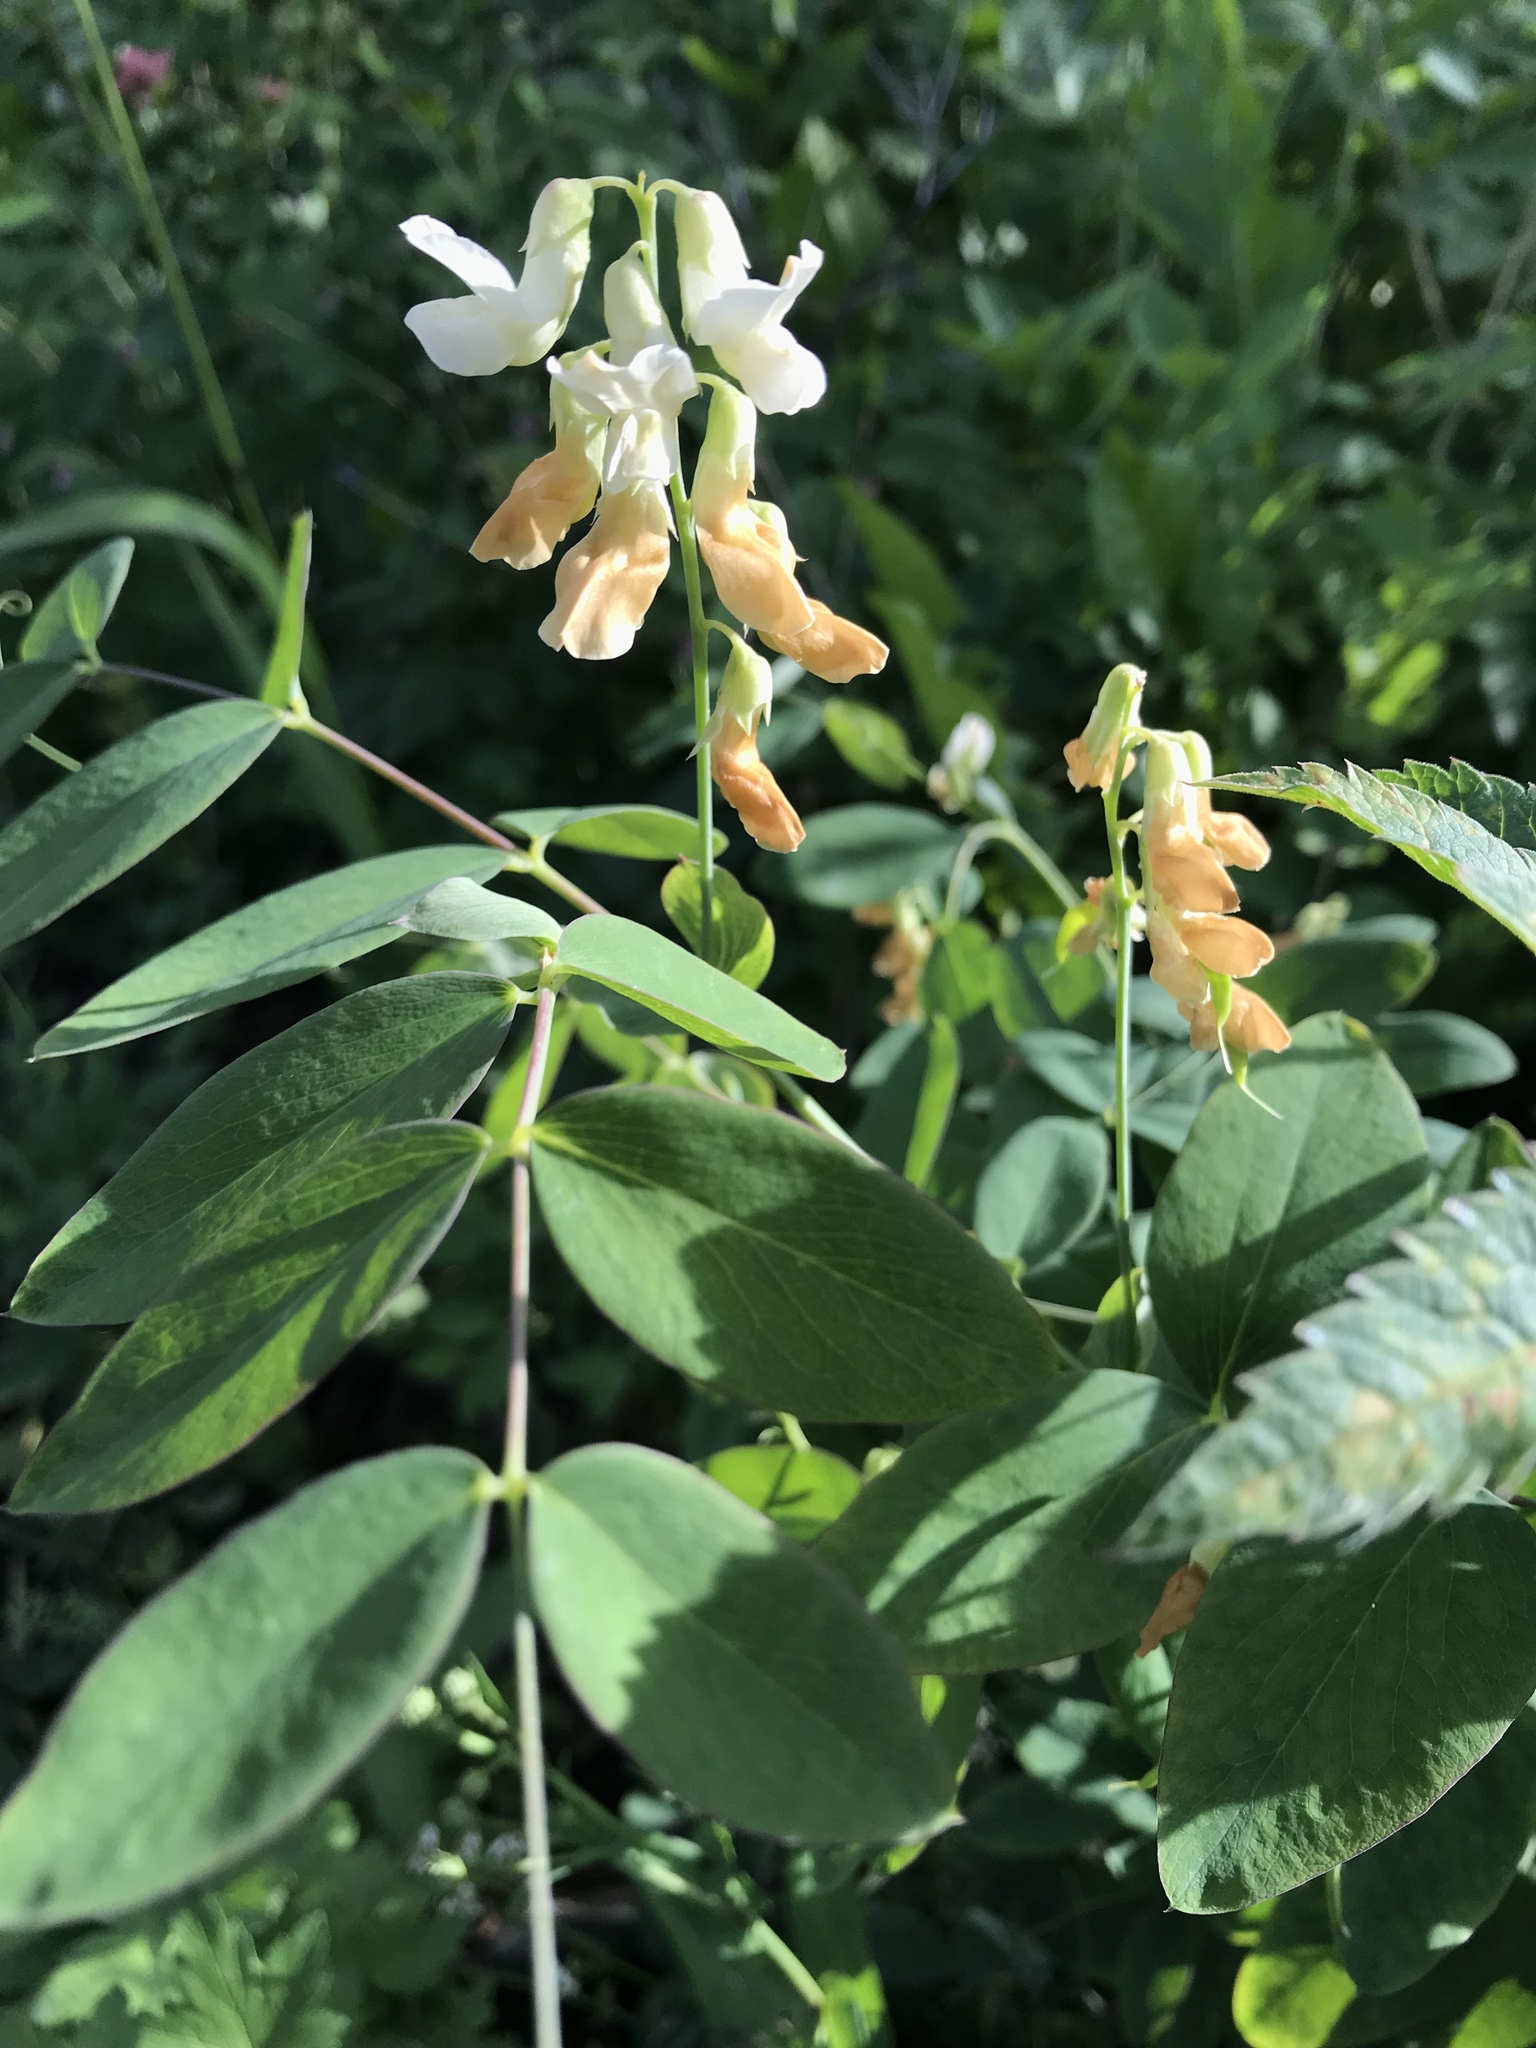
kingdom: Plantae
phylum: Tracheophyta
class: Magnoliopsida
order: Fabales
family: Fabaceae
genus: Lathyrus
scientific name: Lathyrus ochroleucus
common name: Pale vetchling
